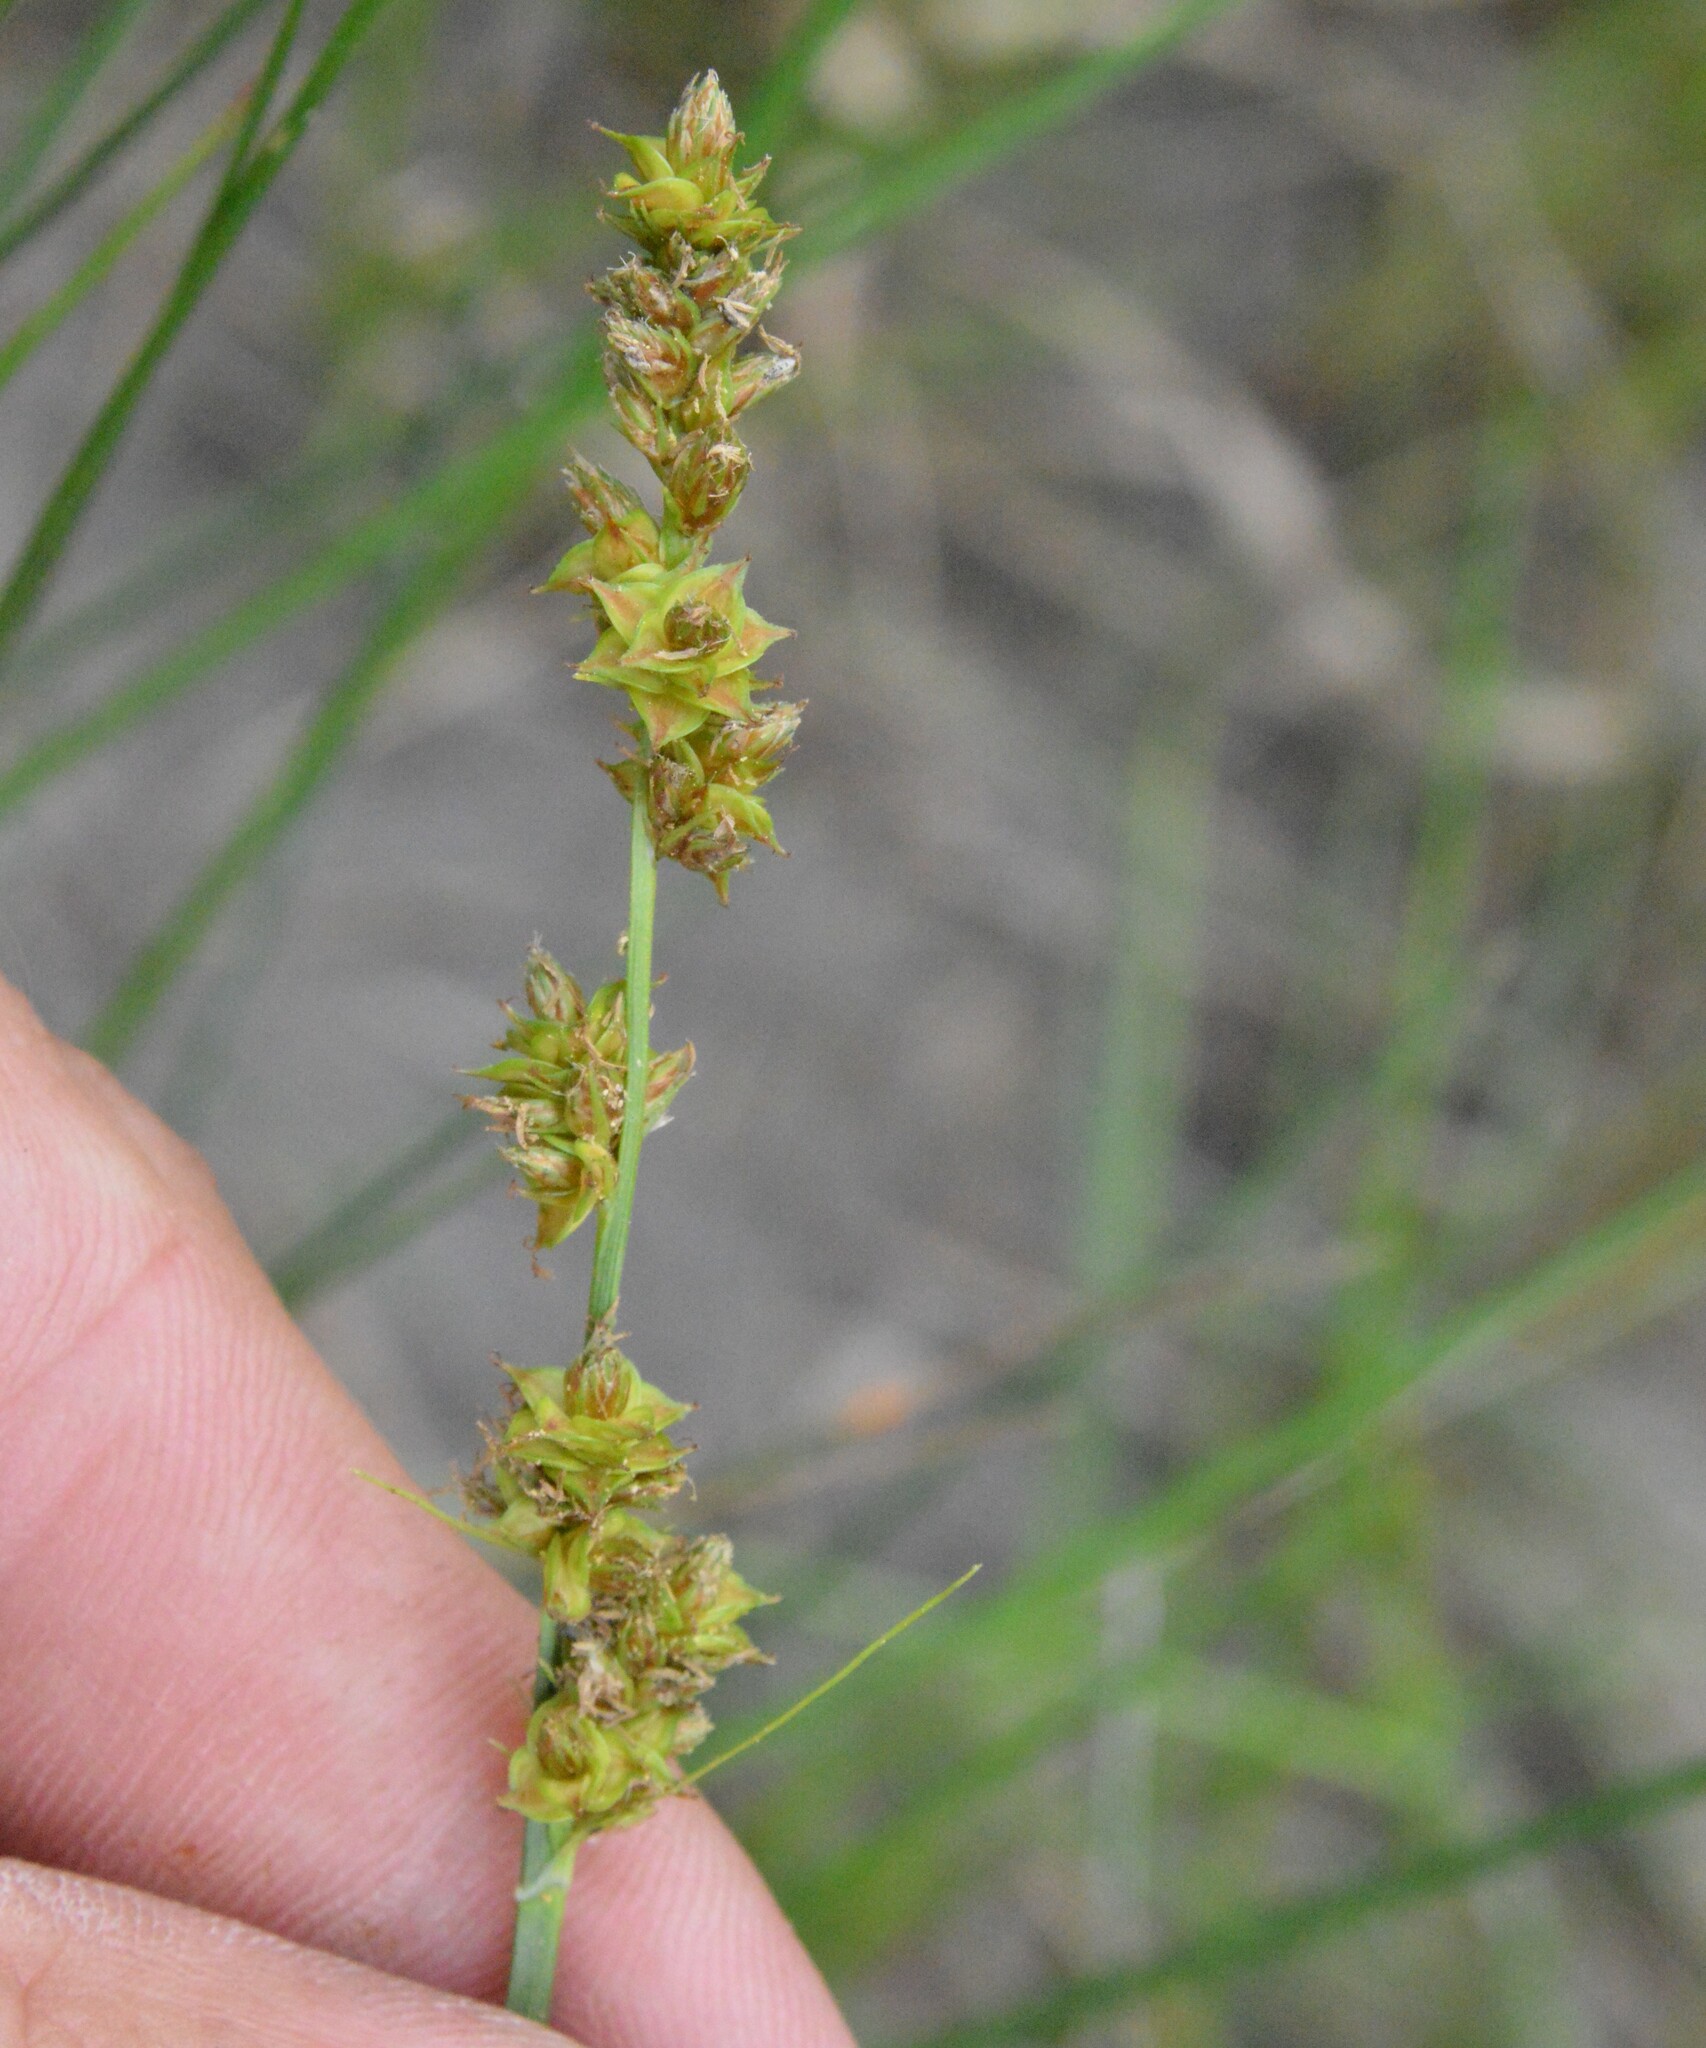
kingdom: Plantae
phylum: Tracheophyta
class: Liliopsida
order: Poales
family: Cyperaceae
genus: Carex
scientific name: Carex fissa
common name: Hammock sedge
